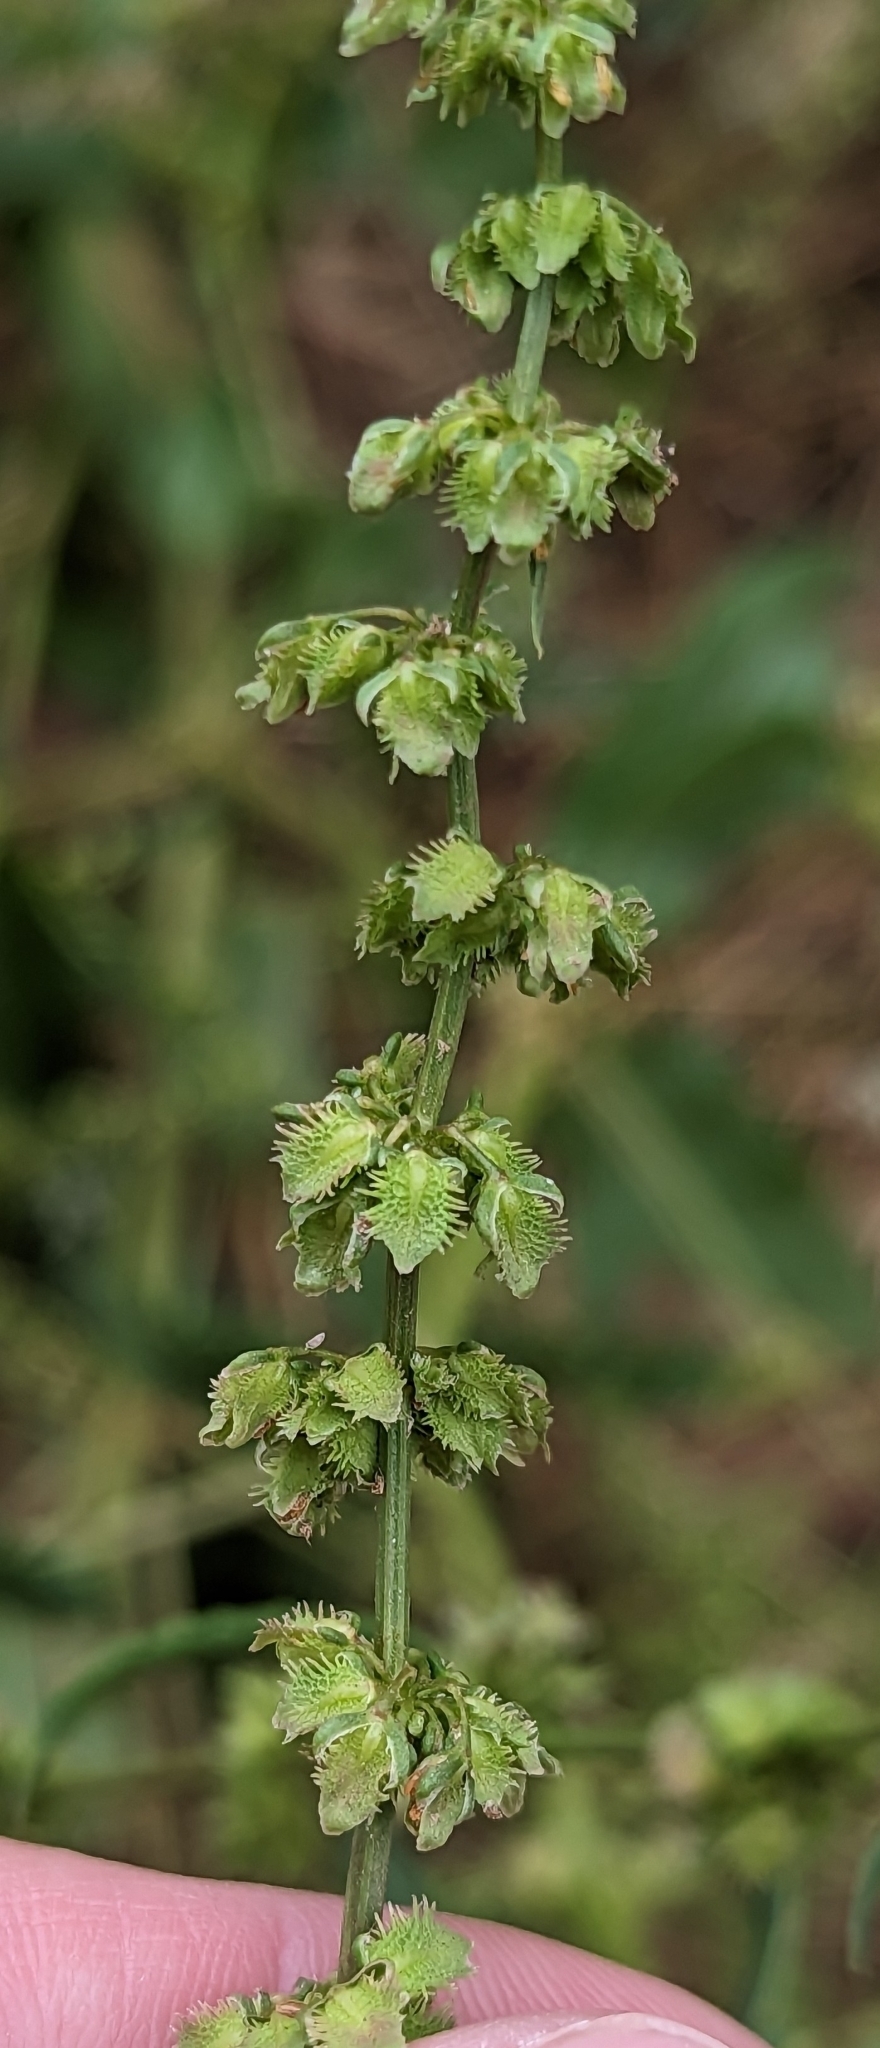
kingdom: Plantae
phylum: Tracheophyta
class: Magnoliopsida
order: Caryophyllales
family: Polygonaceae
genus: Rumex
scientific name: Rumex pulcher
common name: Fiddle dock
